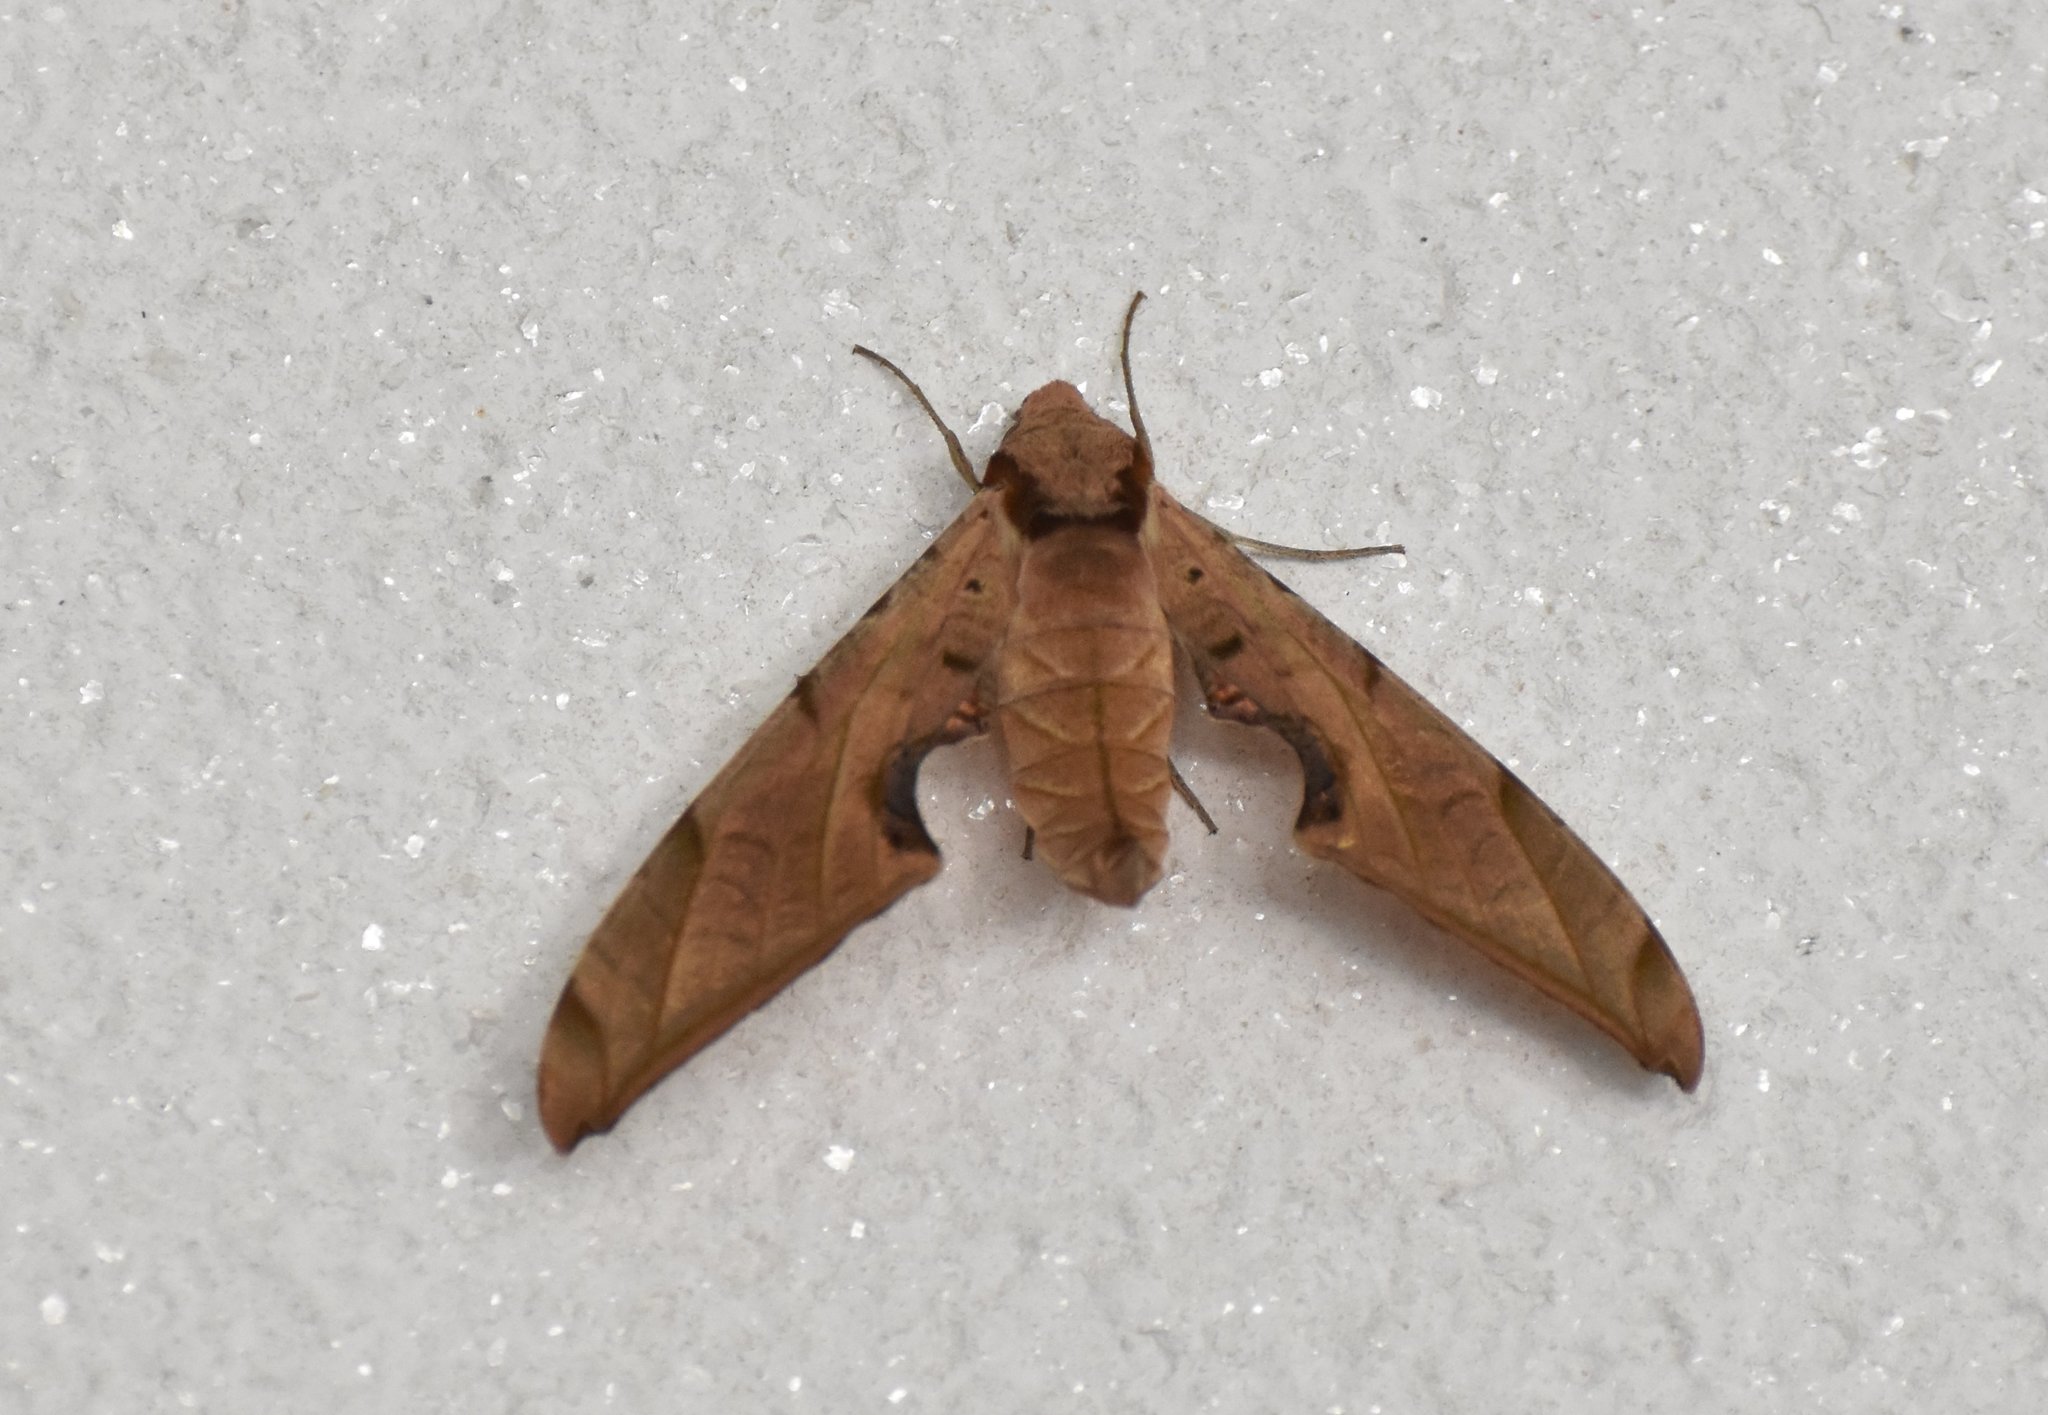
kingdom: Animalia
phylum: Arthropoda
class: Insecta
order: Lepidoptera
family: Sphingidae
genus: Protambulyx
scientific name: Protambulyx strigilis
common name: Streaked sphinx
